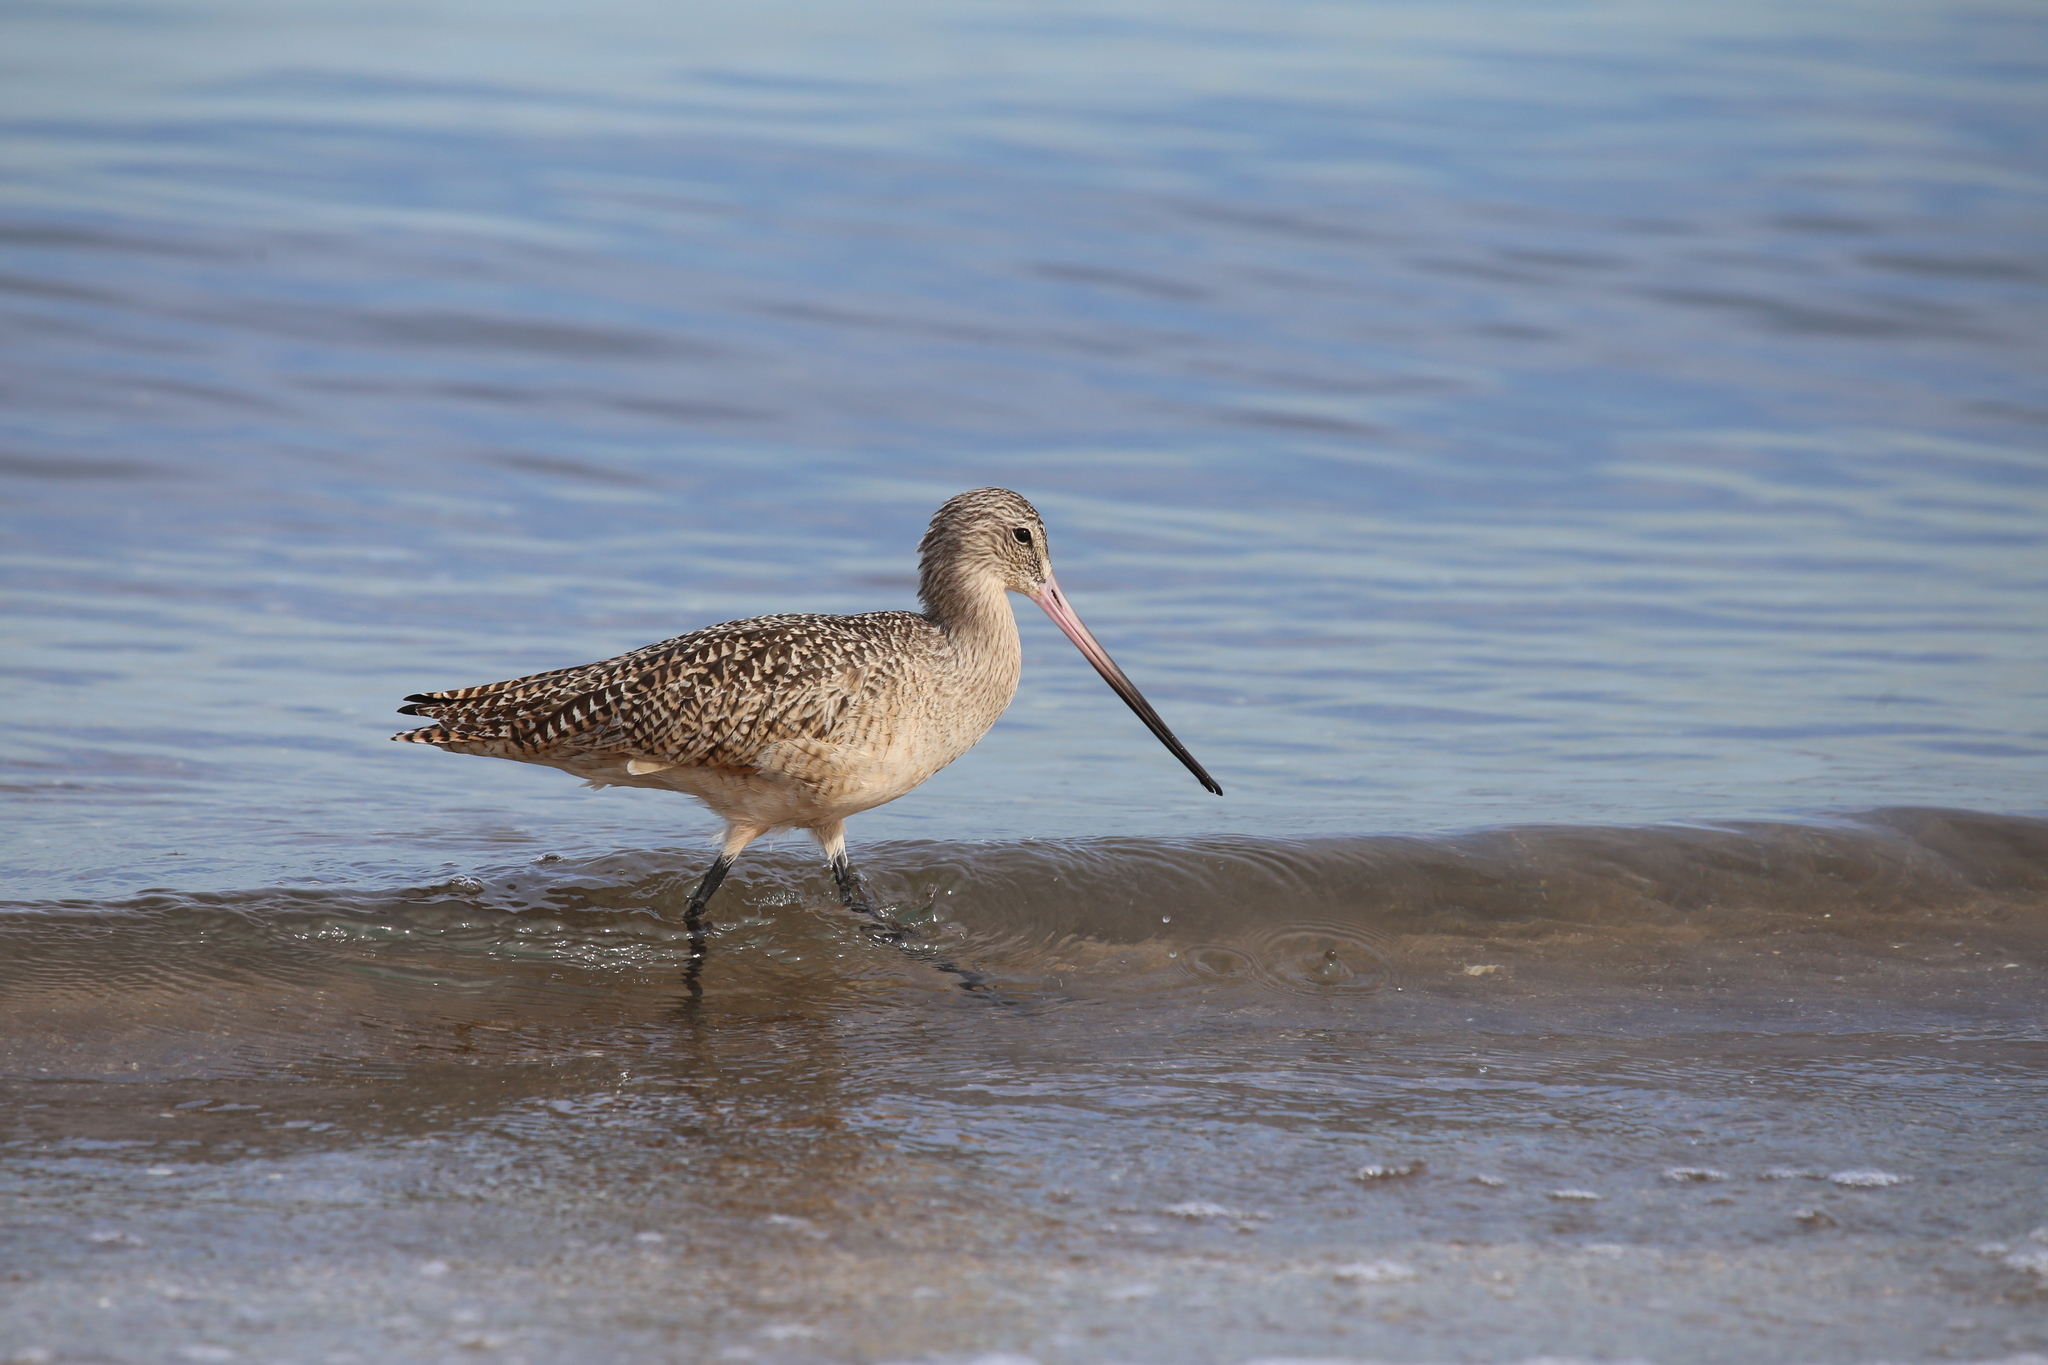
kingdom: Animalia
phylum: Chordata
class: Aves
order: Charadriiformes
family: Scolopacidae
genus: Limosa
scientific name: Limosa fedoa
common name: Marbled godwit
